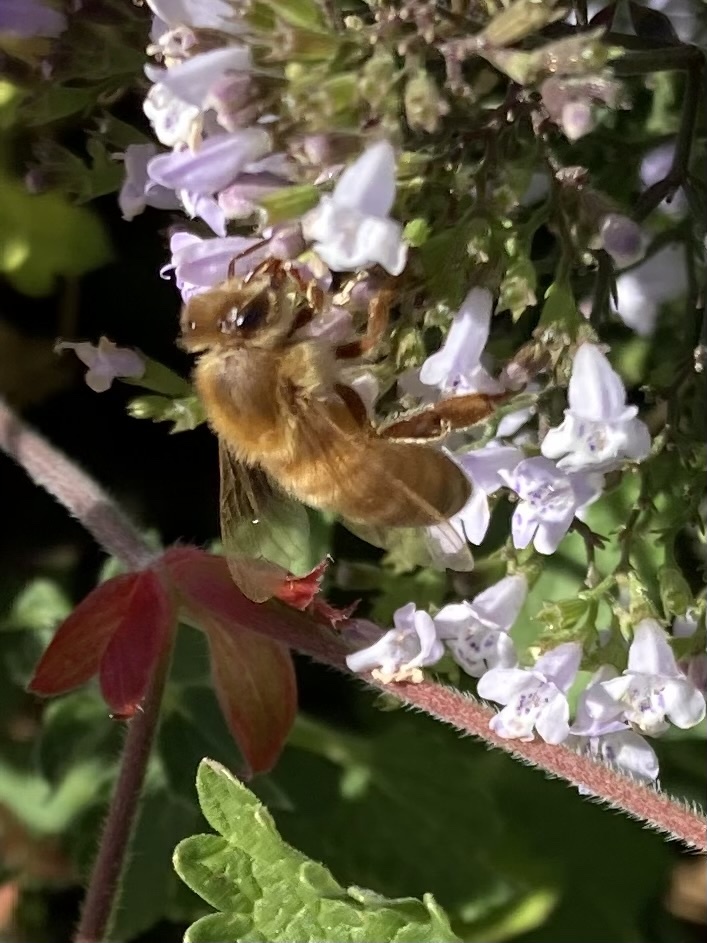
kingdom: Animalia
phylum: Arthropoda
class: Insecta
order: Hymenoptera
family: Apidae
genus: Apis
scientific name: Apis mellifera
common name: Honey bee
